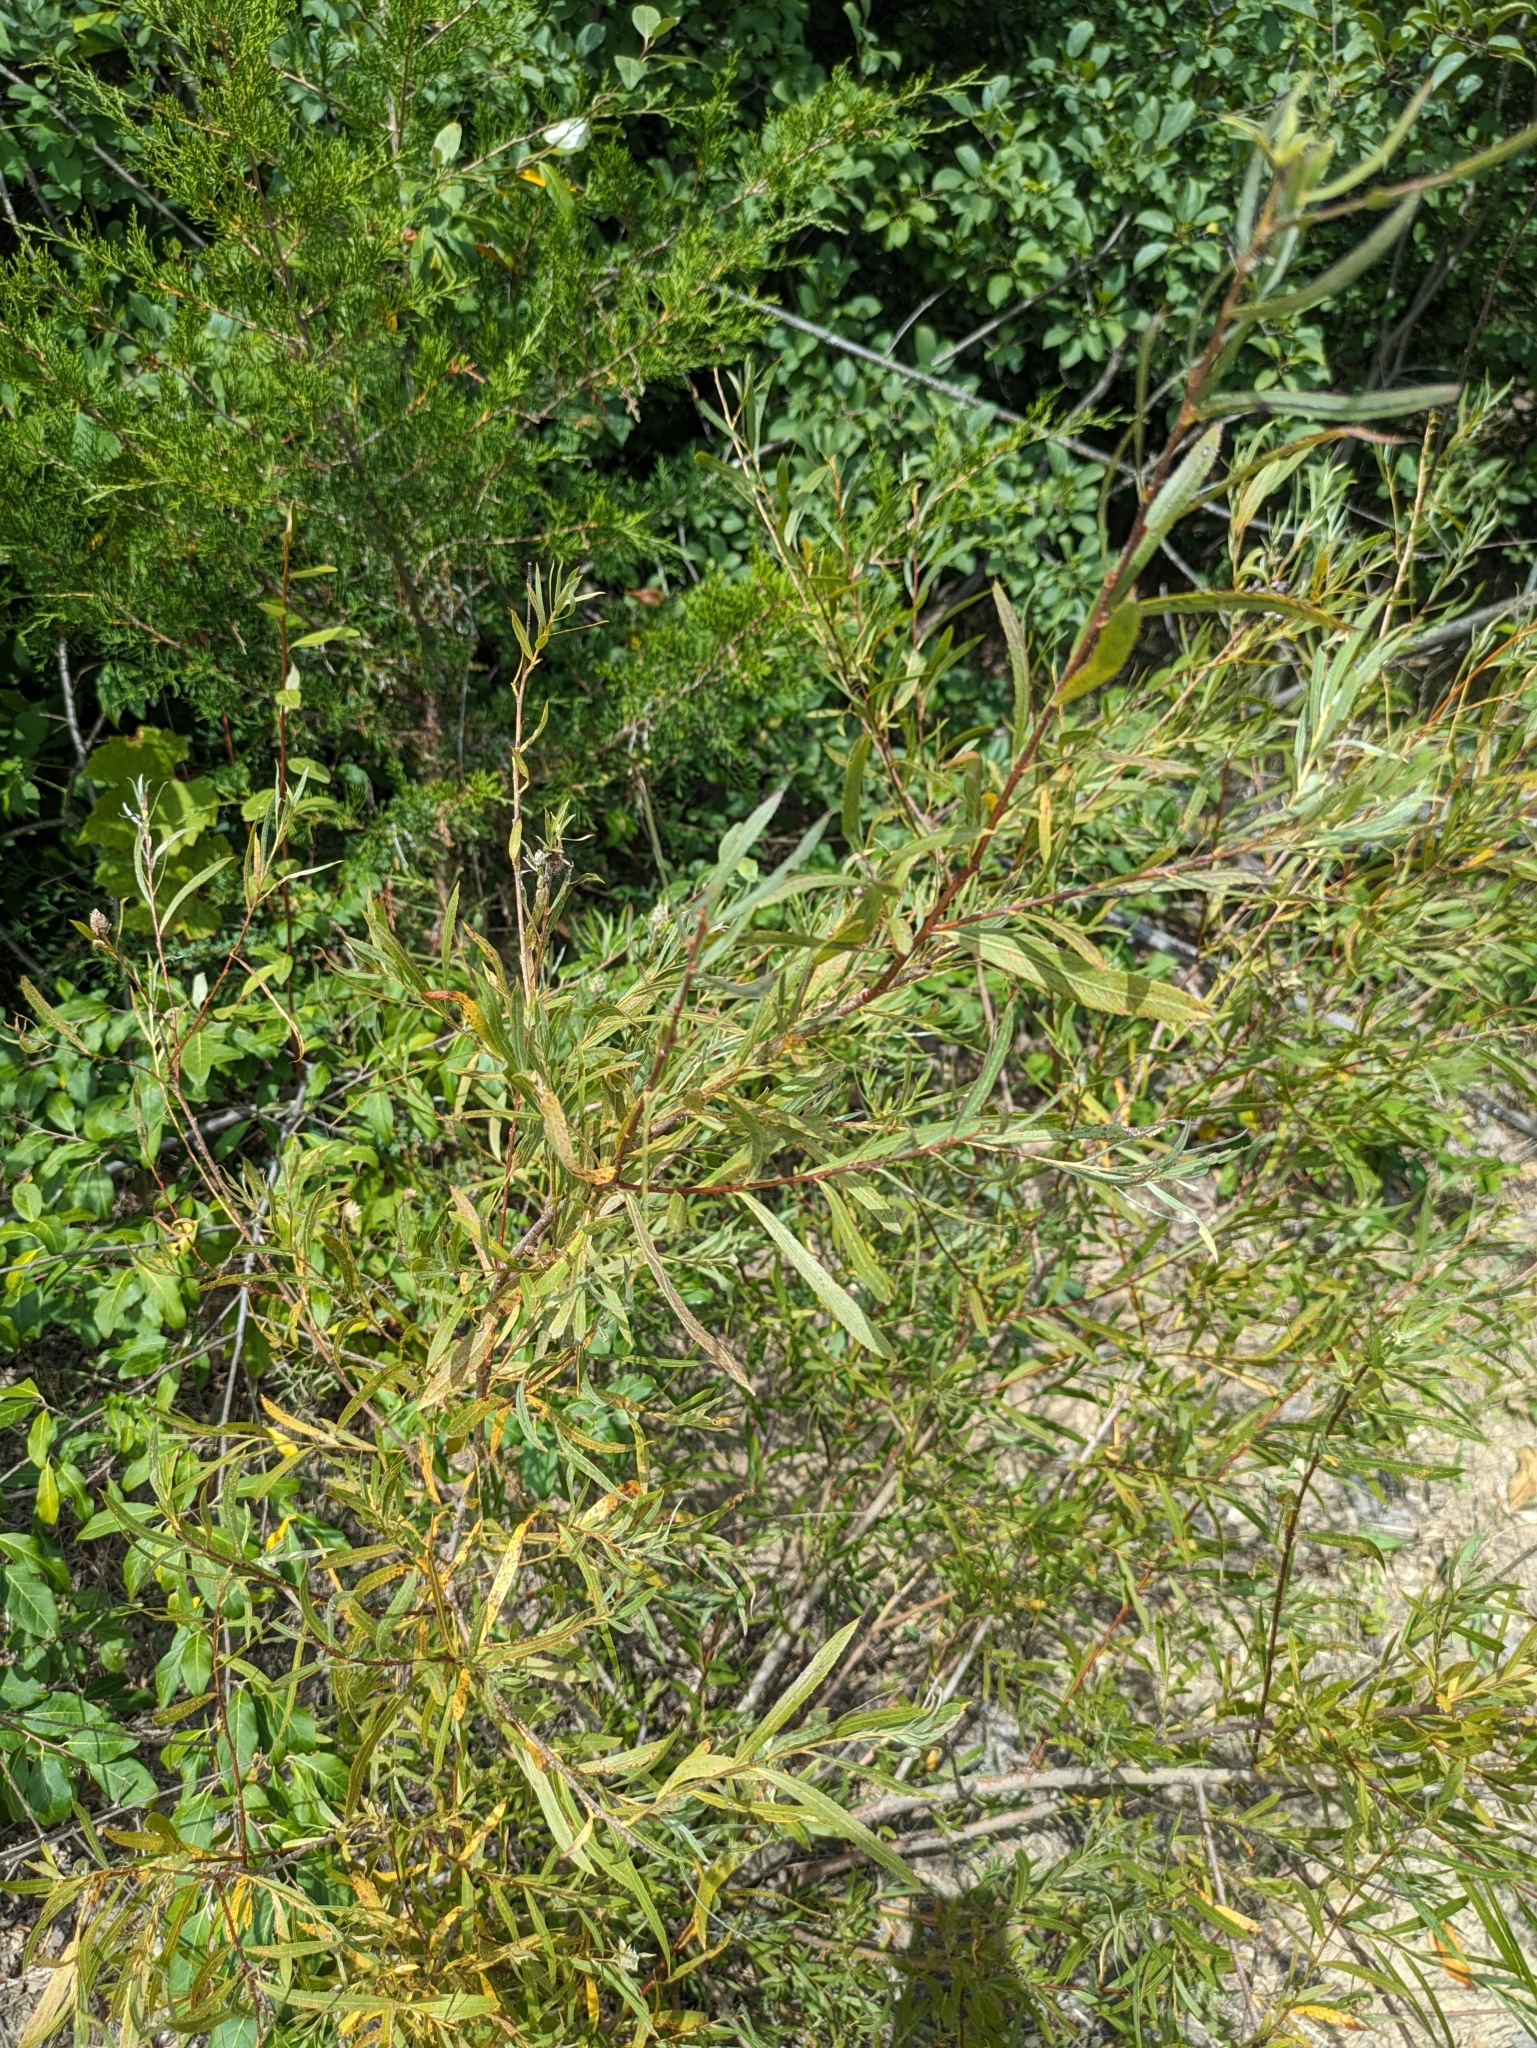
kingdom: Plantae
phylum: Tracheophyta
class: Magnoliopsida
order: Malpighiales
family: Salicaceae
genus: Salix
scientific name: Salix interior
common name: Sandbar willow
